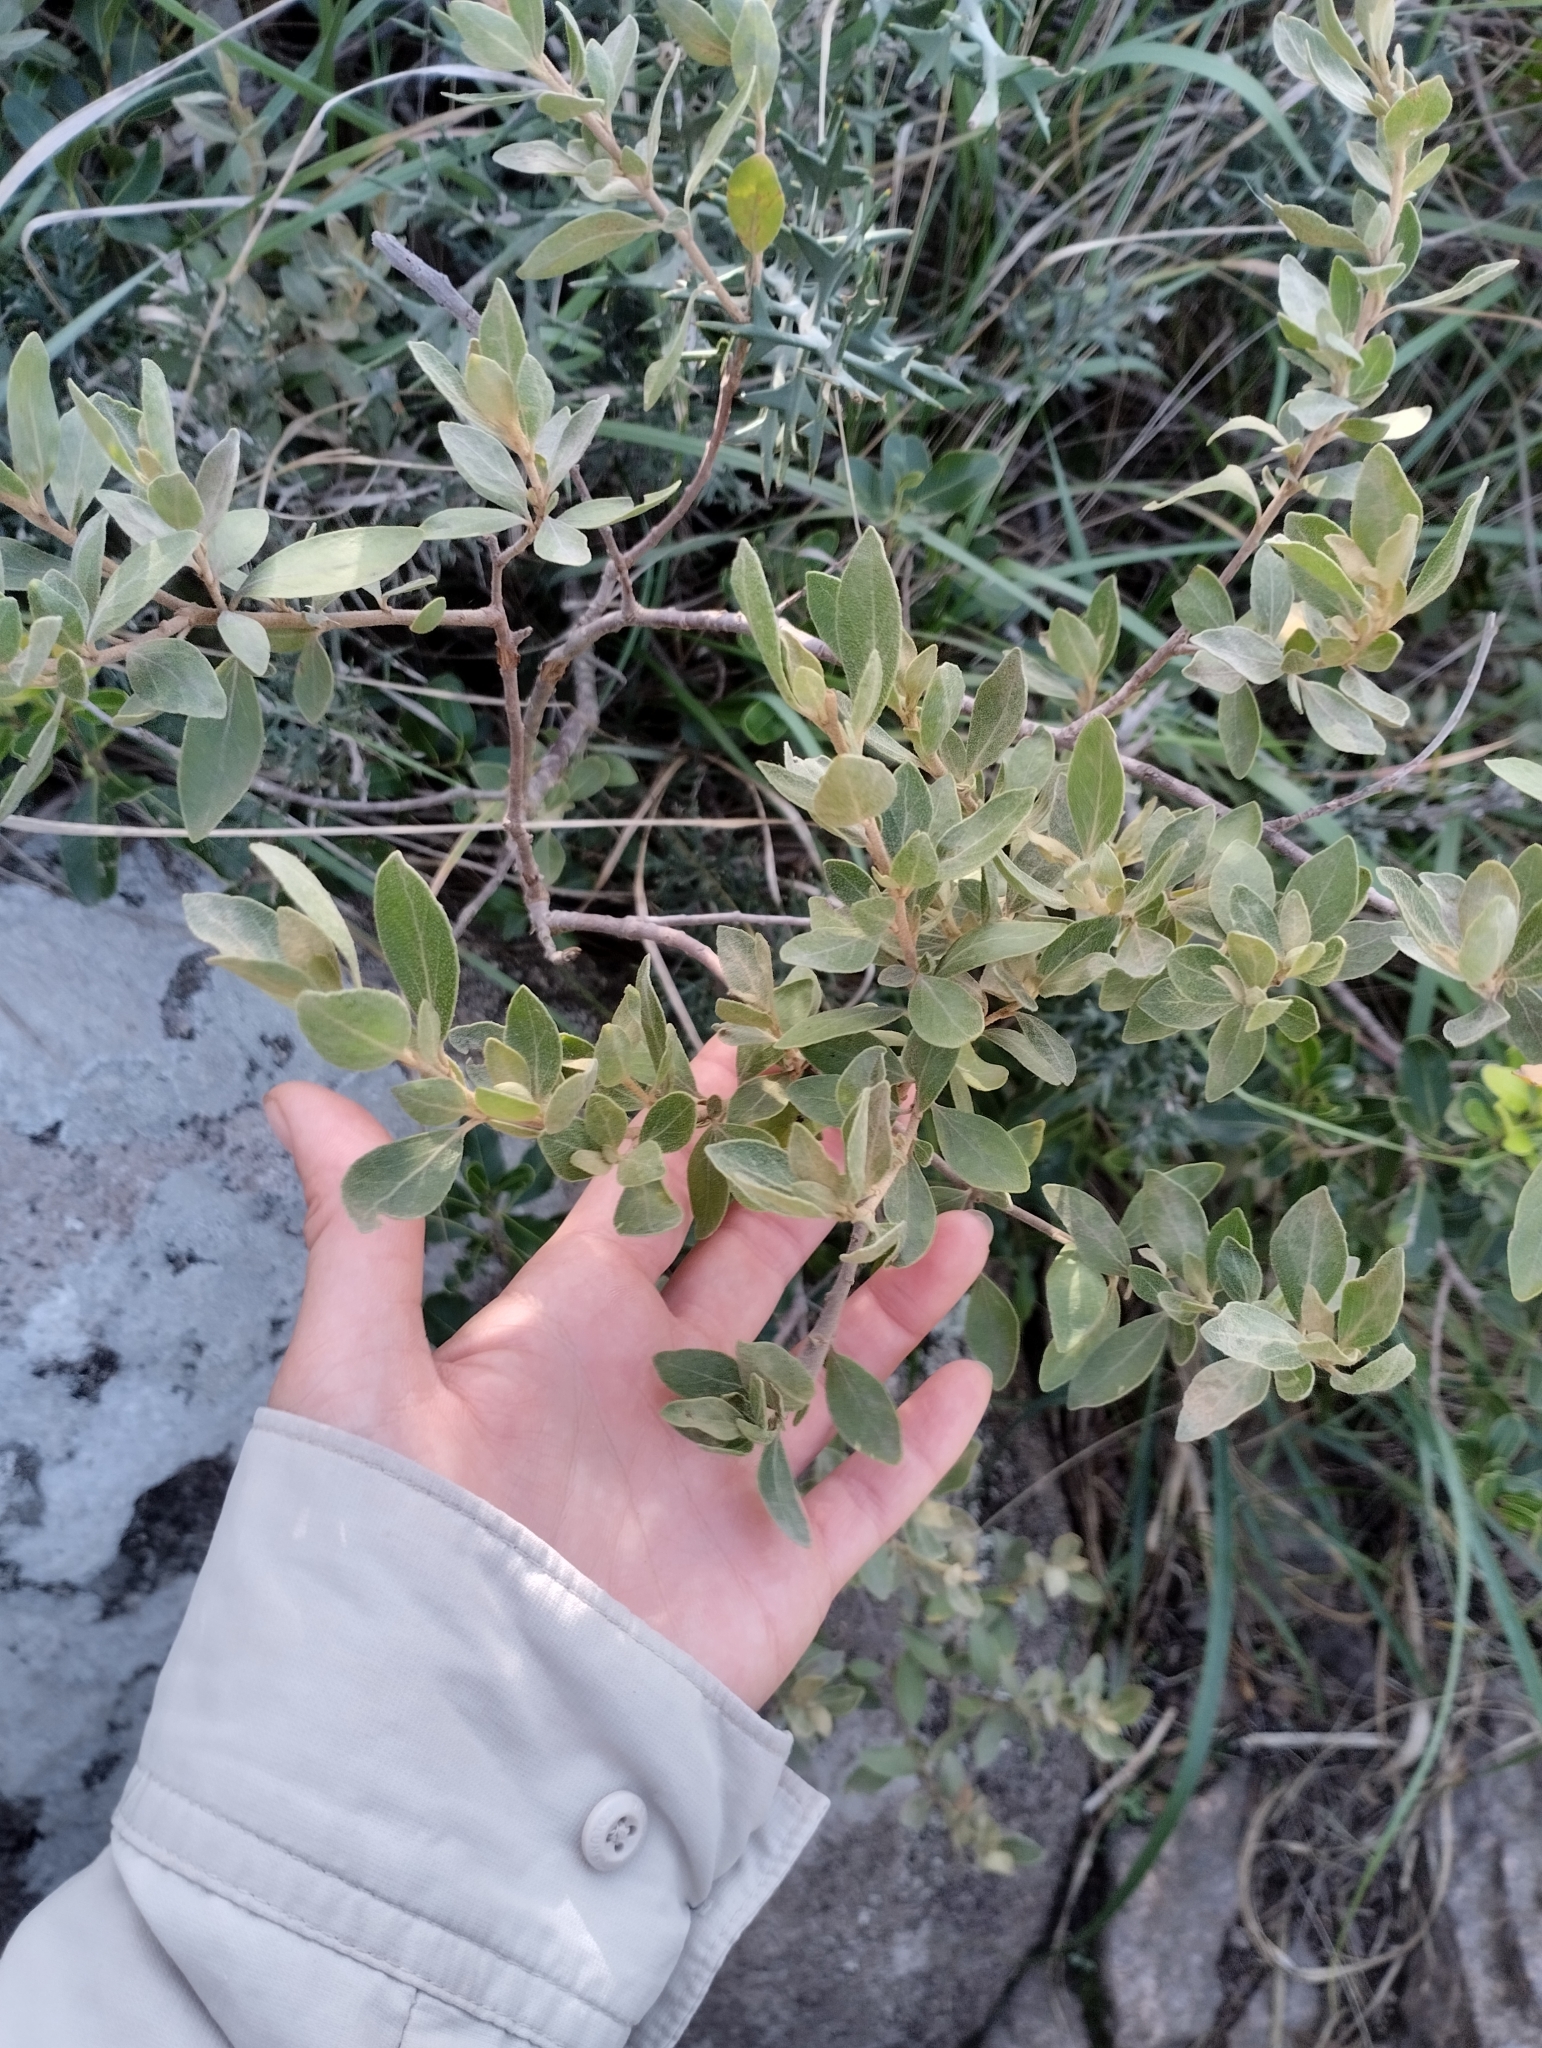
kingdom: Plantae
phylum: Tracheophyta
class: Magnoliopsida
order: Malpighiales
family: Euphorbiaceae
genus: Croton
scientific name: Croton montevidensis
